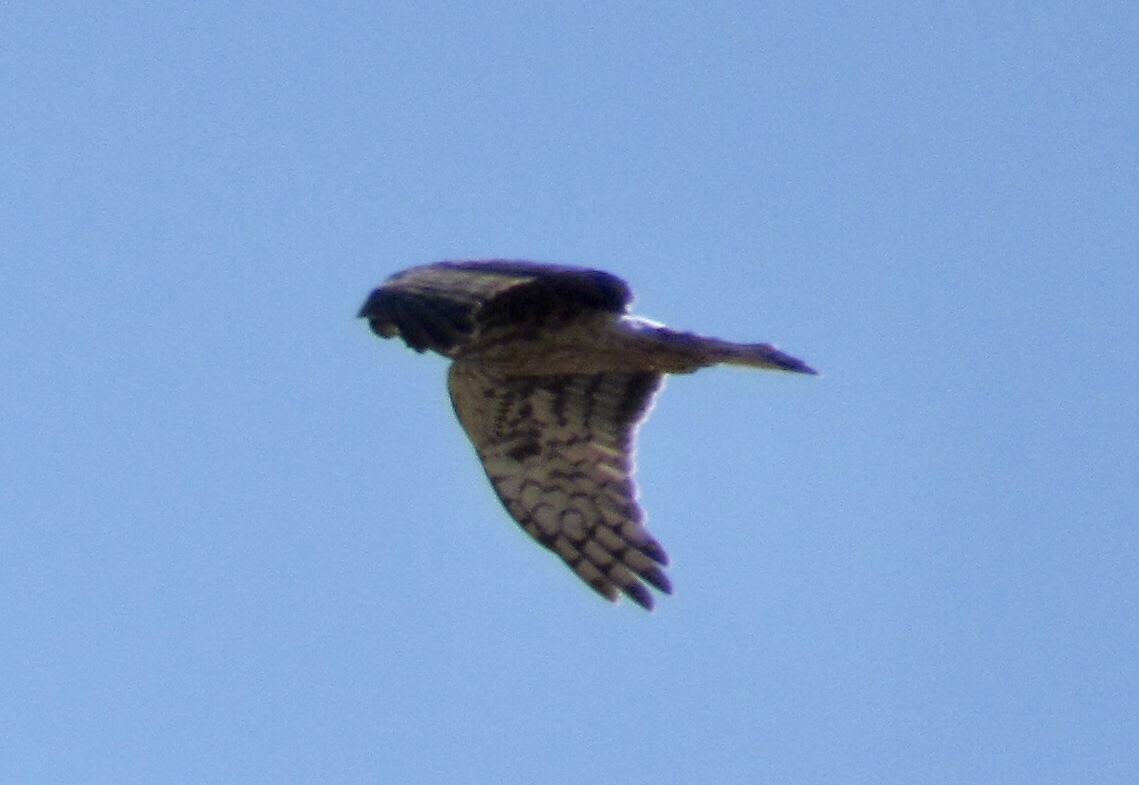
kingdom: Animalia
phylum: Chordata
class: Aves
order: Accipitriformes
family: Accipitridae
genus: Circus
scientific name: Circus cyaneus
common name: Hen harrier
